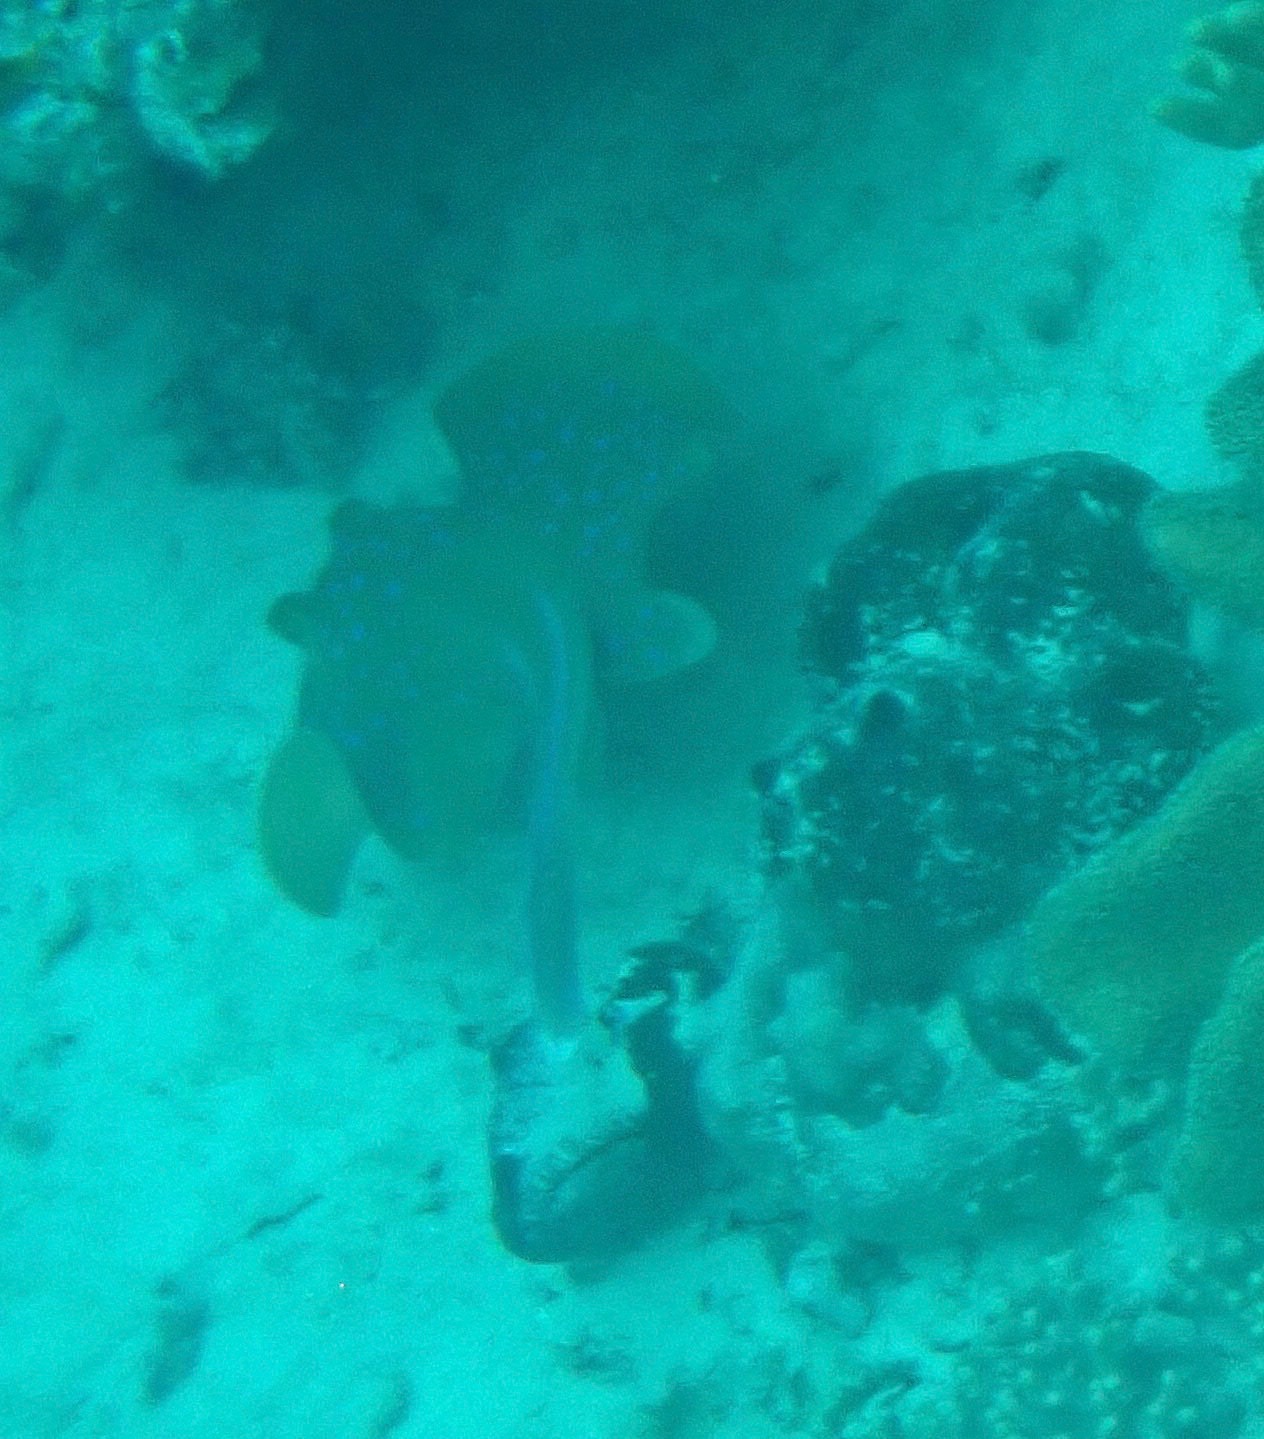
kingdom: Animalia
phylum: Chordata
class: Elasmobranchii
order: Myliobatiformes
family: Dasyatidae
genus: Taeniura
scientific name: Taeniura lymma
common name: Bluespotted ribbontail ray
